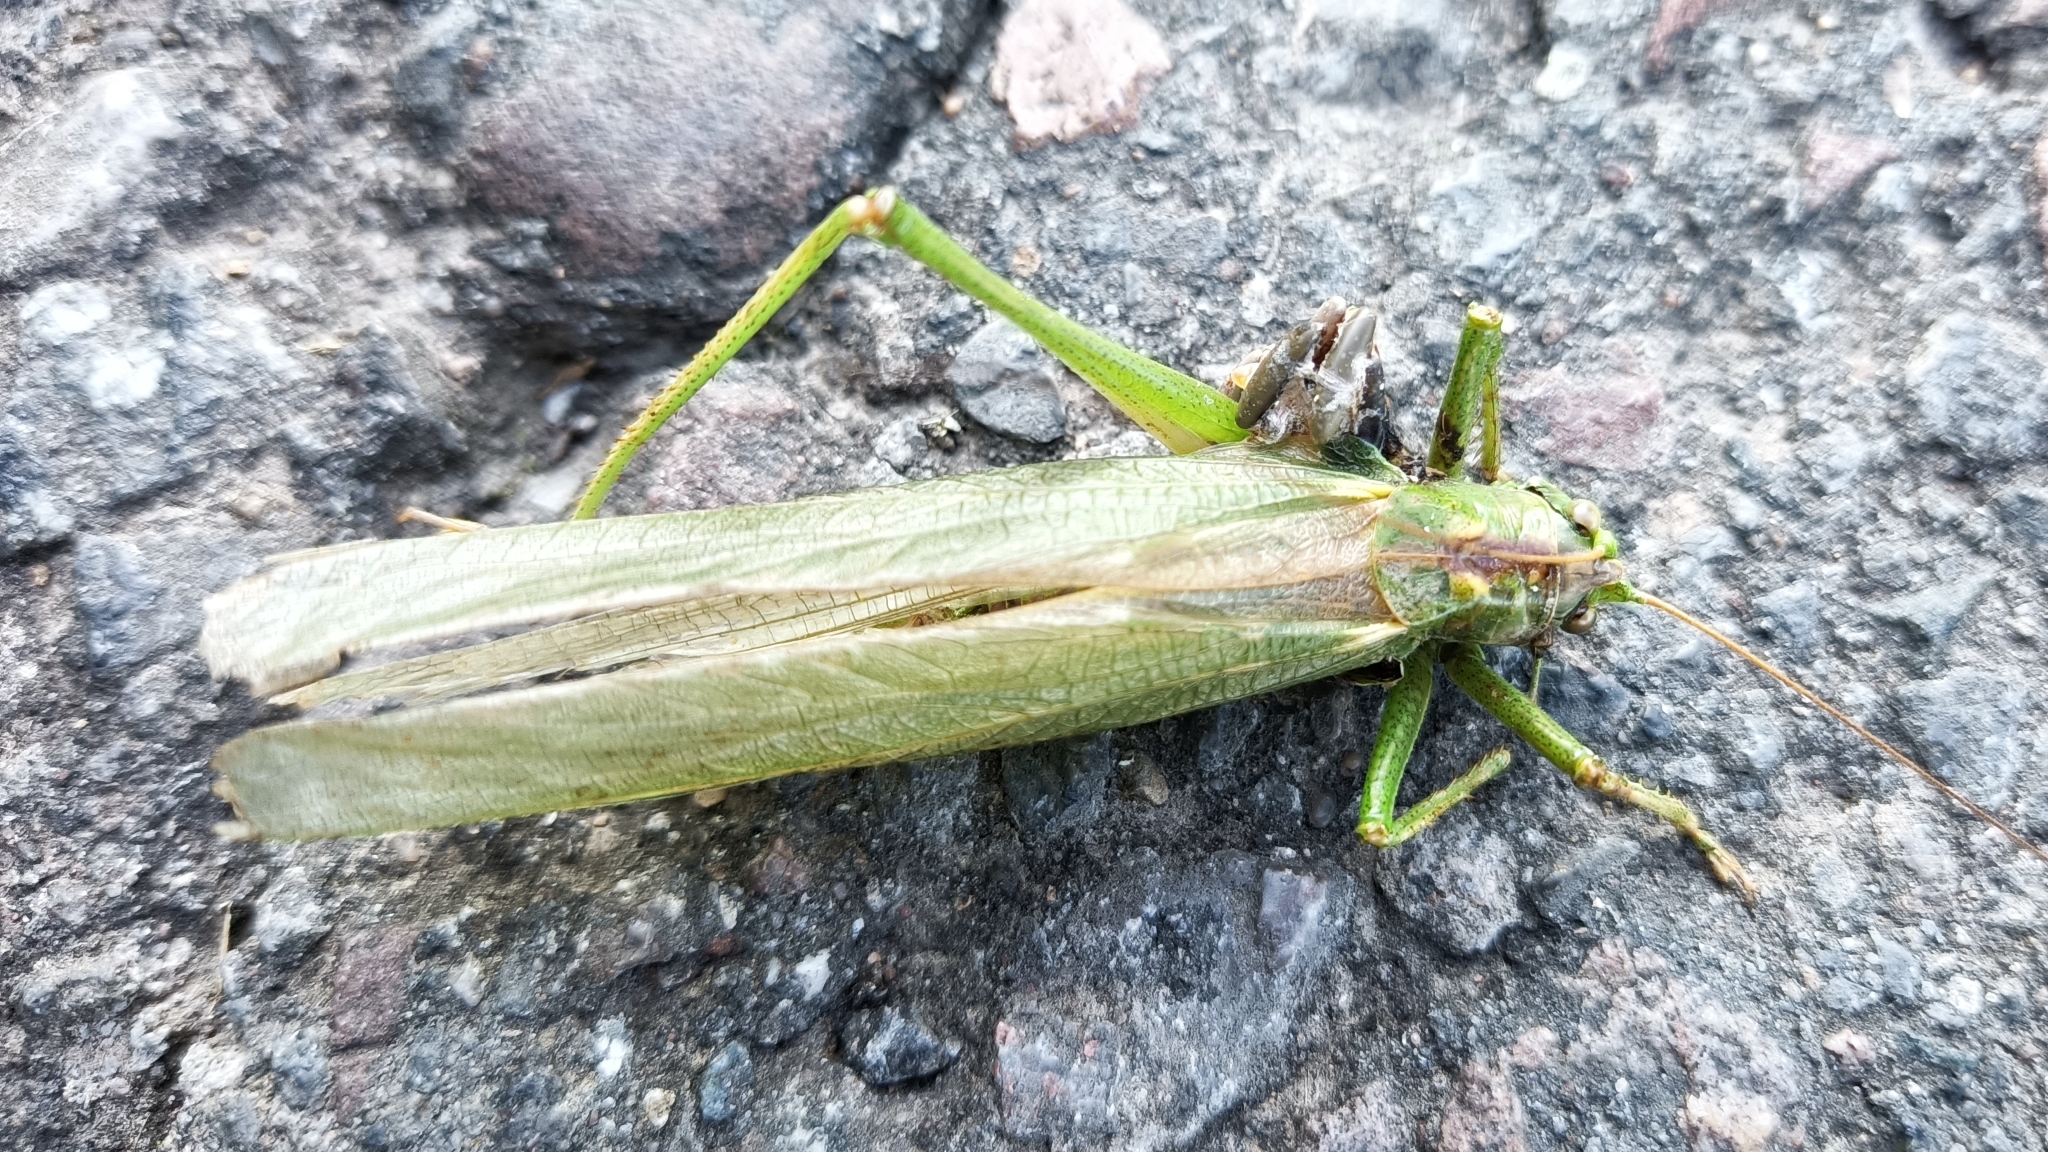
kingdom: Animalia
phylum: Arthropoda
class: Insecta
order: Orthoptera
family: Tettigoniidae
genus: Tettigonia
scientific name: Tettigonia viridissima
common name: Great green bush-cricket
